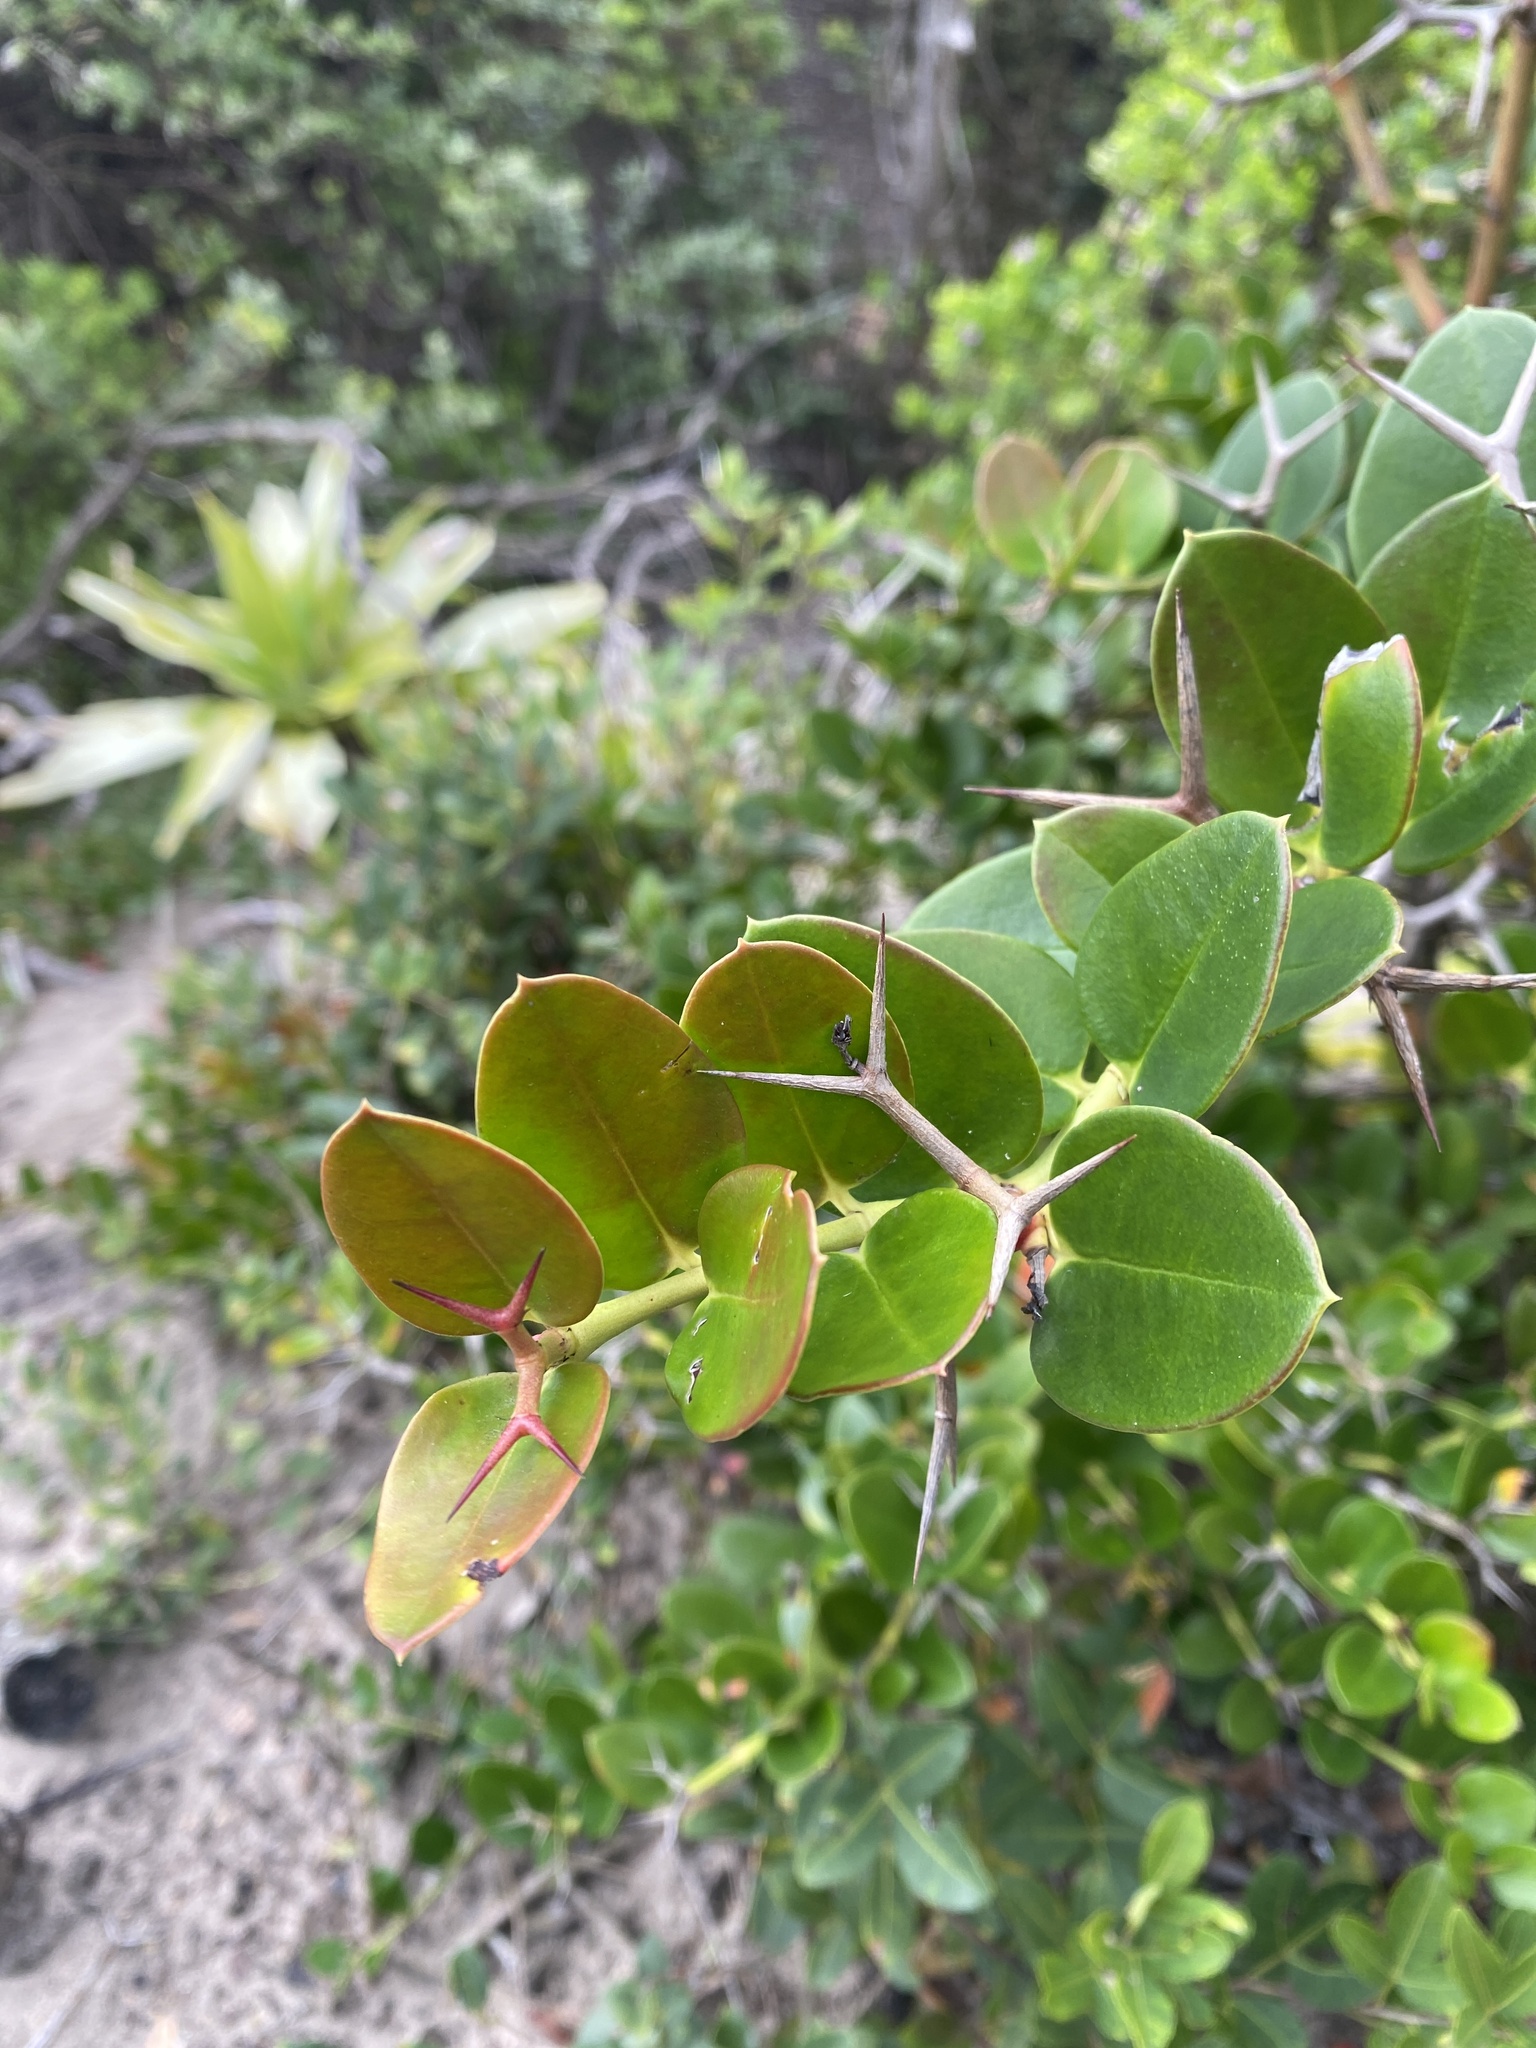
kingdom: Plantae
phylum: Tracheophyta
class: Magnoliopsida
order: Gentianales
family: Apocynaceae
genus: Carissa
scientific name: Carissa macrocarpa
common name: Natal plum
